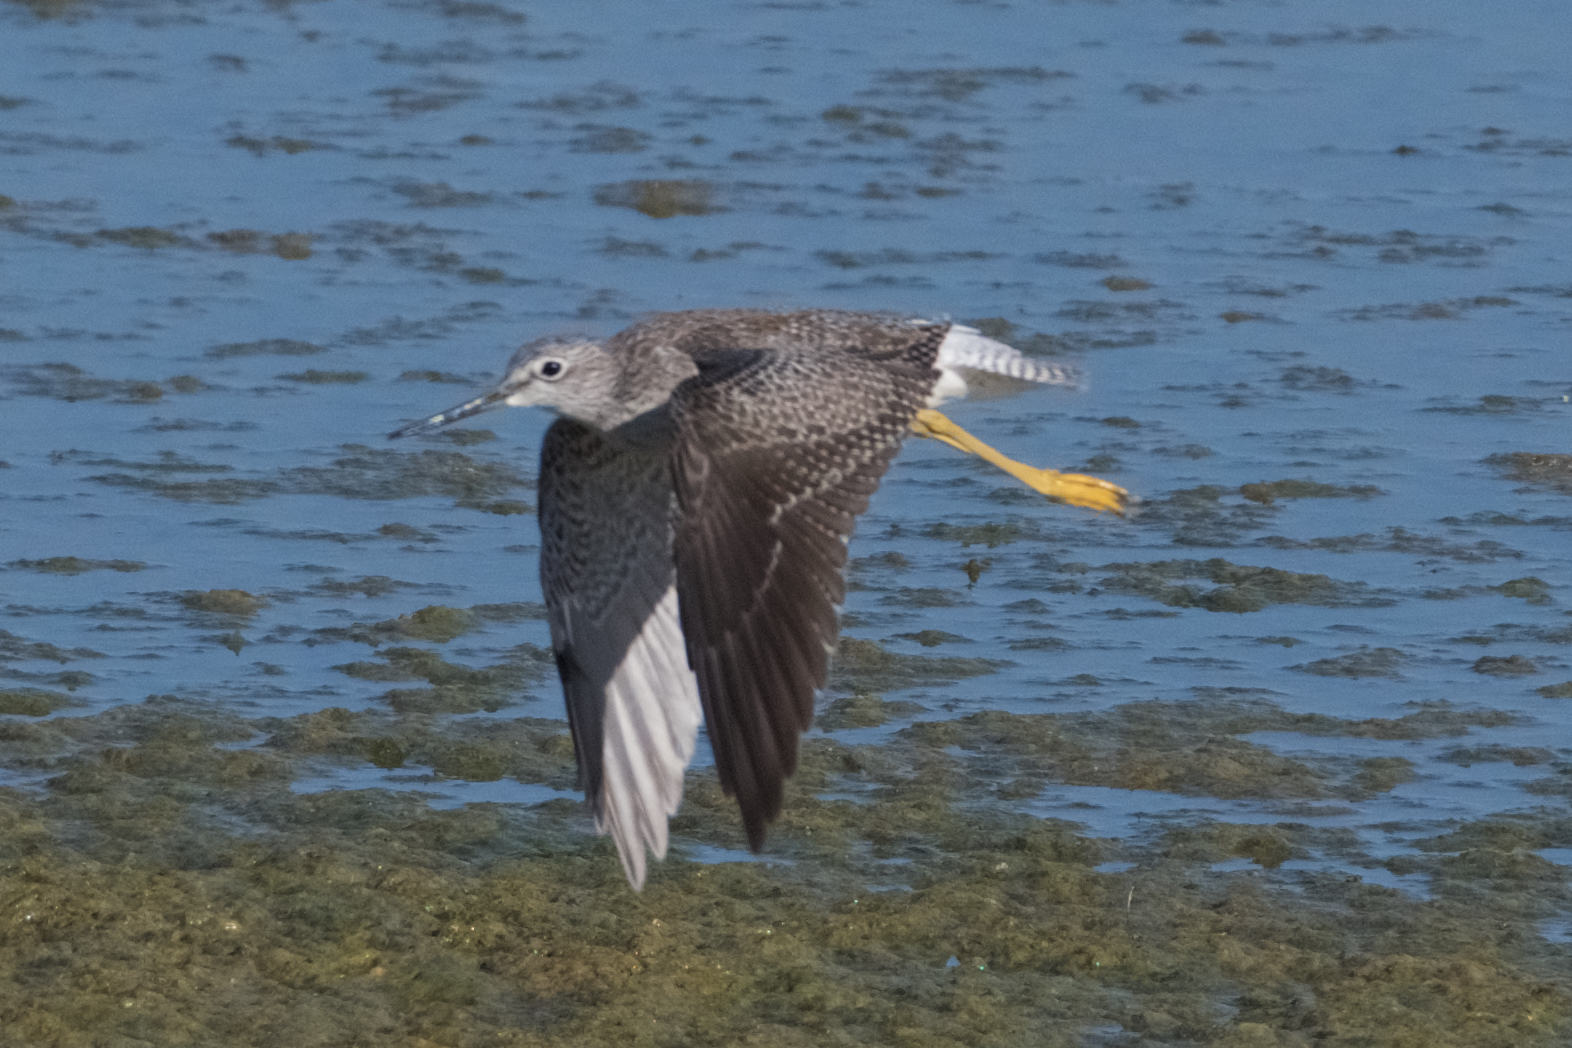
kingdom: Animalia
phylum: Chordata
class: Aves
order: Charadriiformes
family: Scolopacidae
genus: Tringa
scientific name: Tringa melanoleuca
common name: Greater yellowlegs
